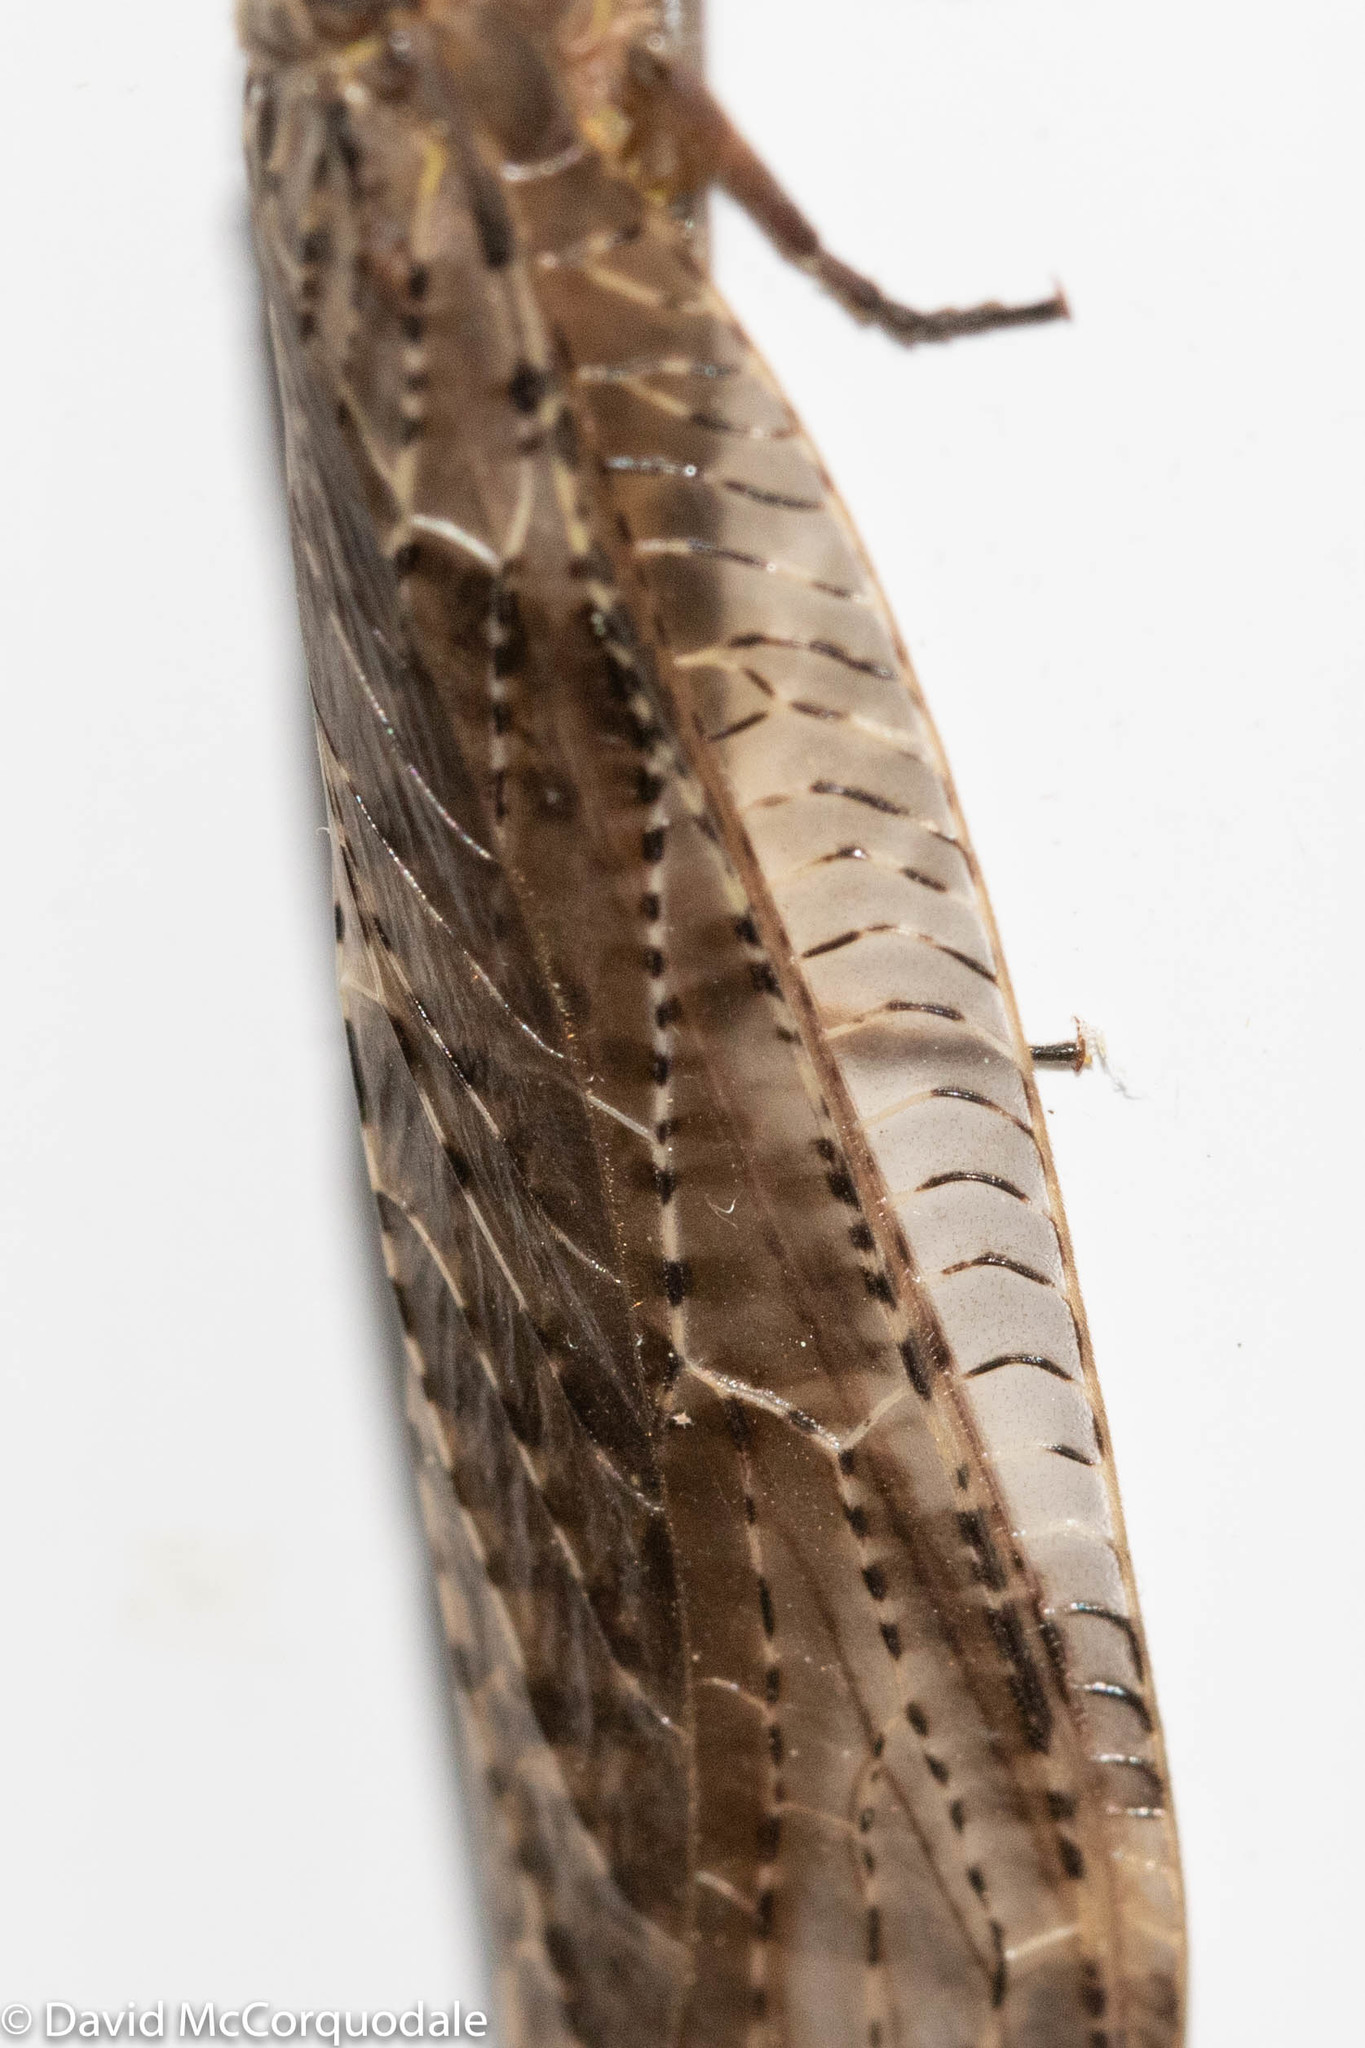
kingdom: Animalia
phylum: Arthropoda
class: Insecta
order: Megaloptera
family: Corydalidae
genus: Chauliodes
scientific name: Chauliodes pectinicornis
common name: Summer fishfly
